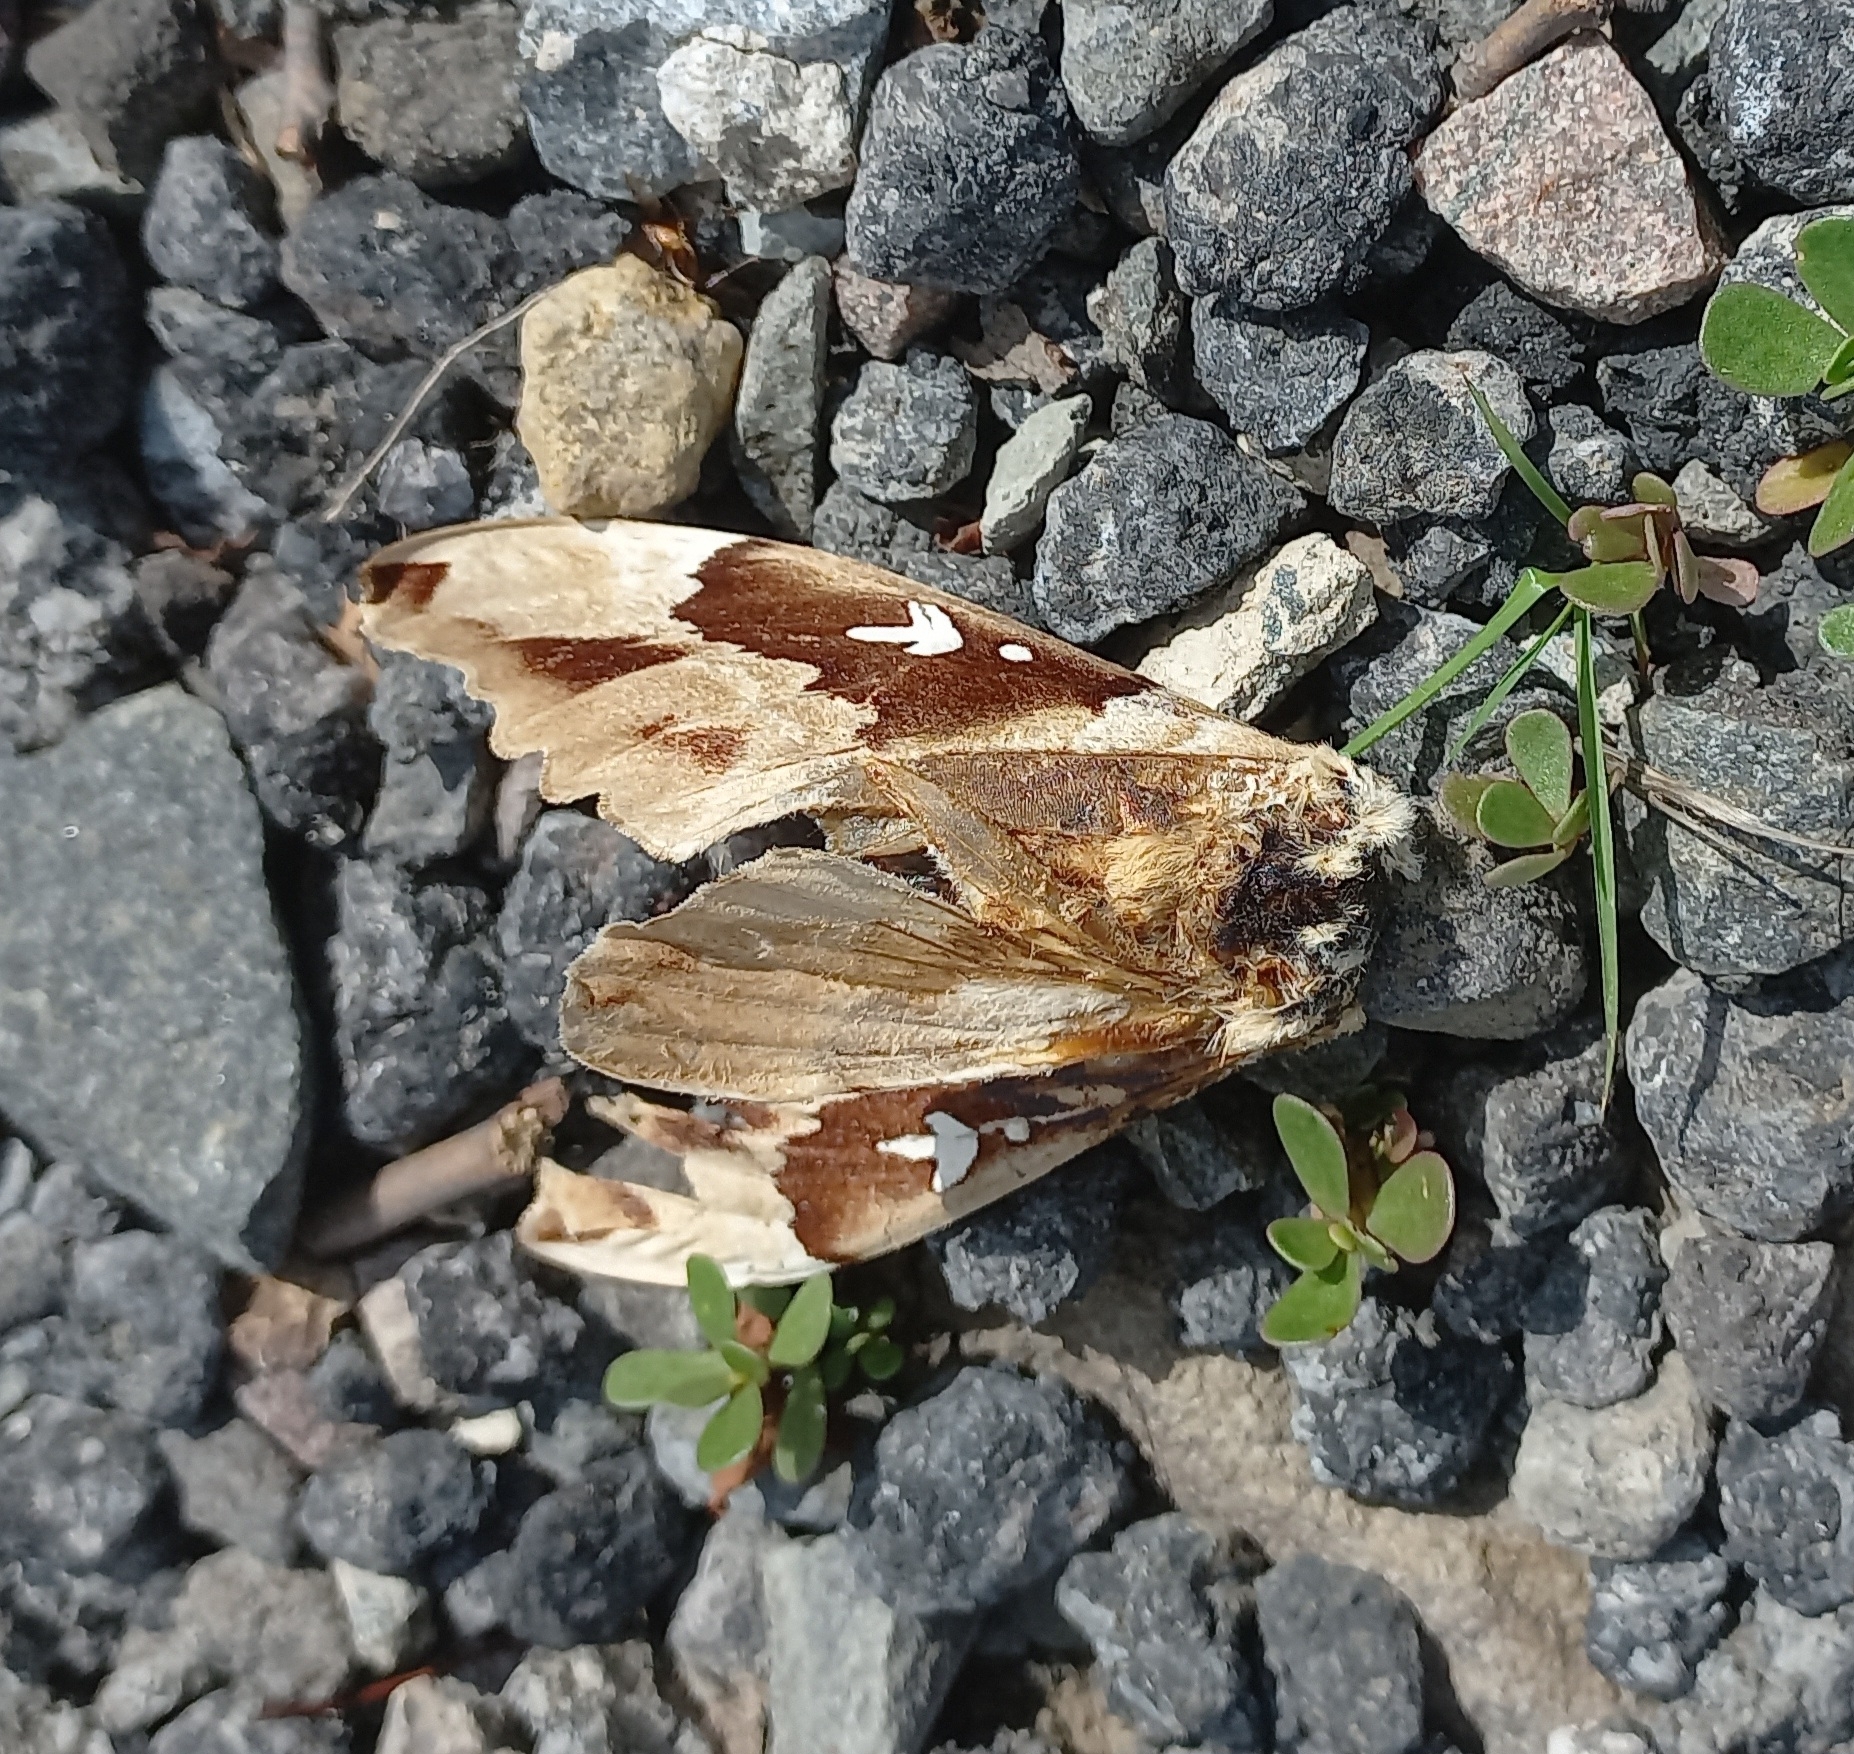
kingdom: Animalia
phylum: Arthropoda
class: Insecta
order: Lepidoptera
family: Sphingidae
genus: Lophostethus
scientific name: Lophostethus dumolinii
